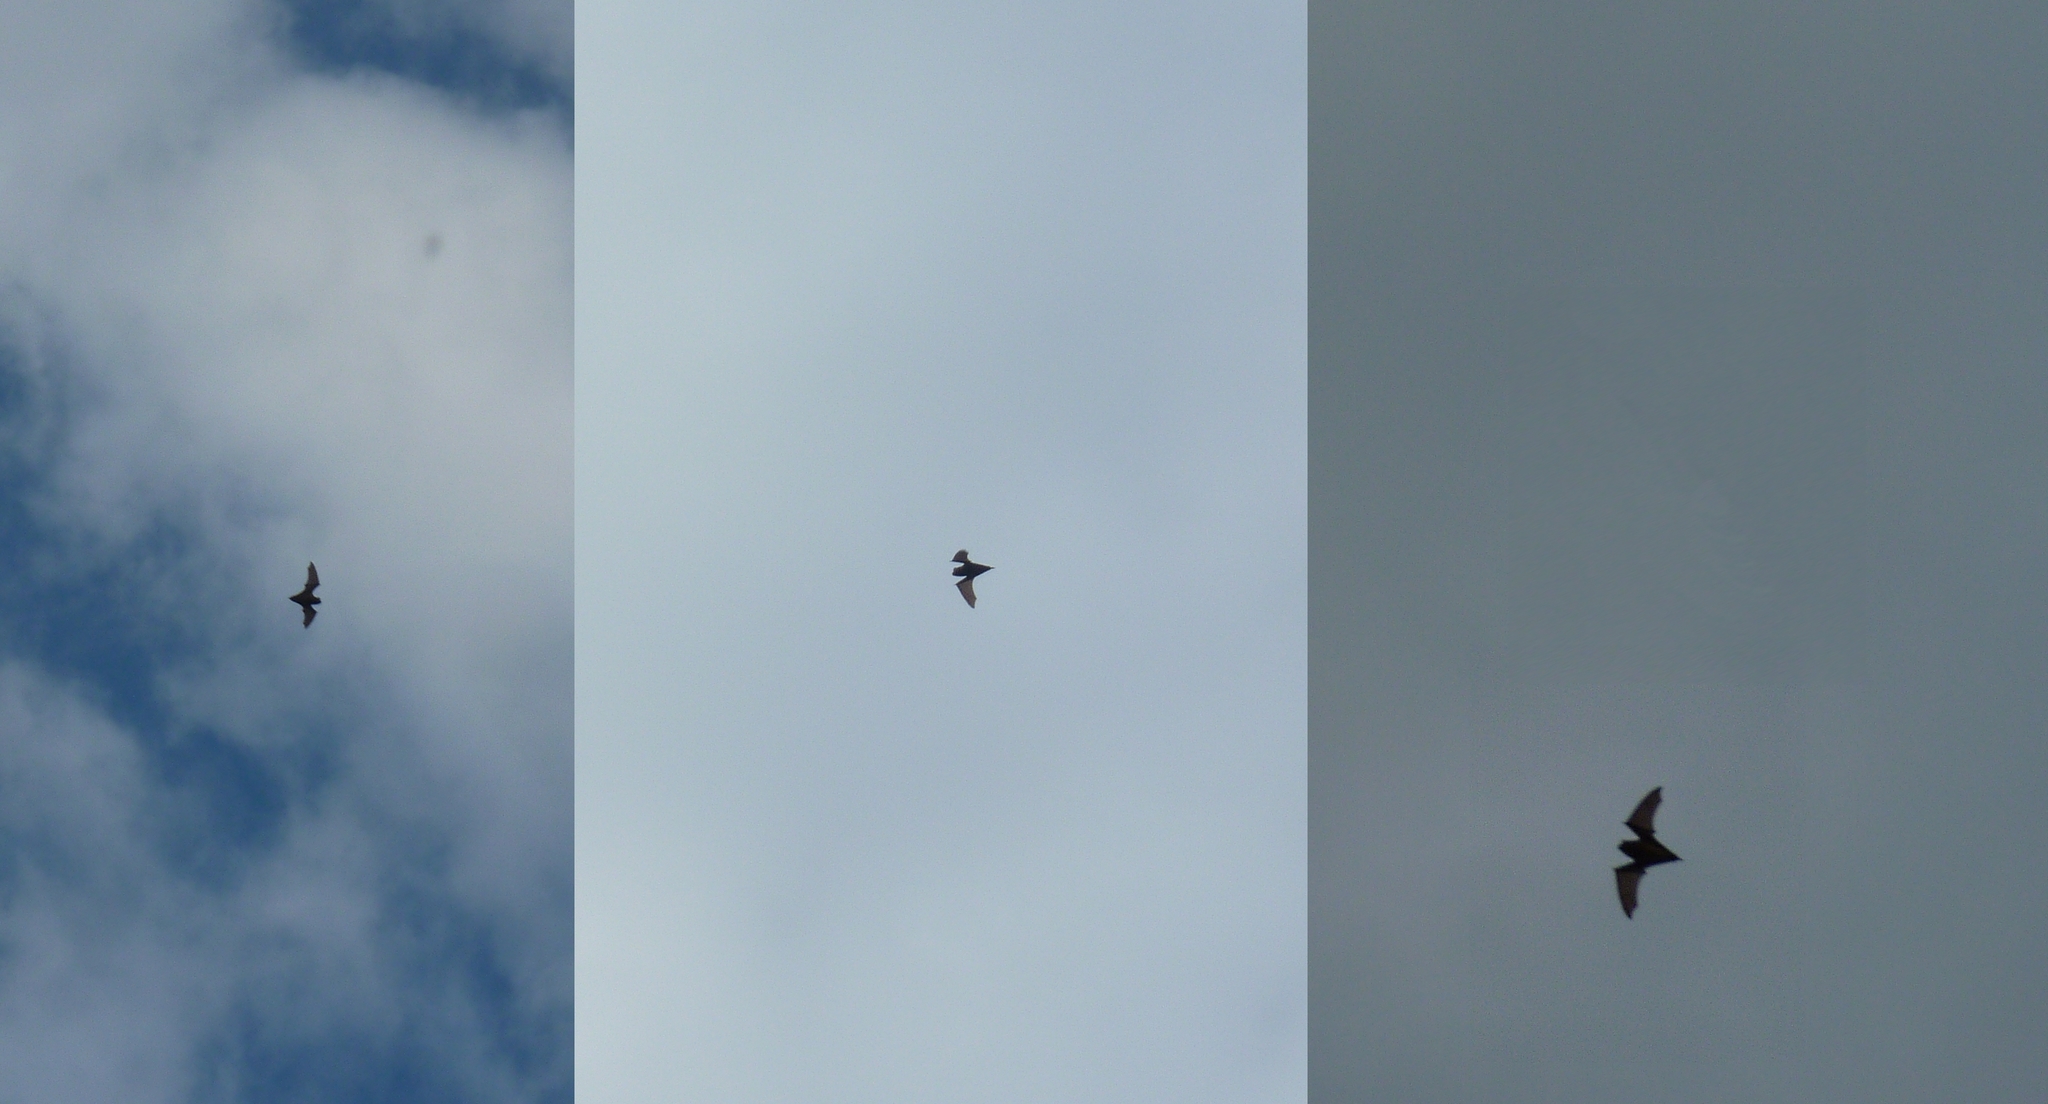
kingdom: Animalia
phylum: Chordata
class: Mammalia
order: Chiroptera
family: Vespertilionidae
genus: Nyctalus
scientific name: Nyctalus noctula
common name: Noctule
